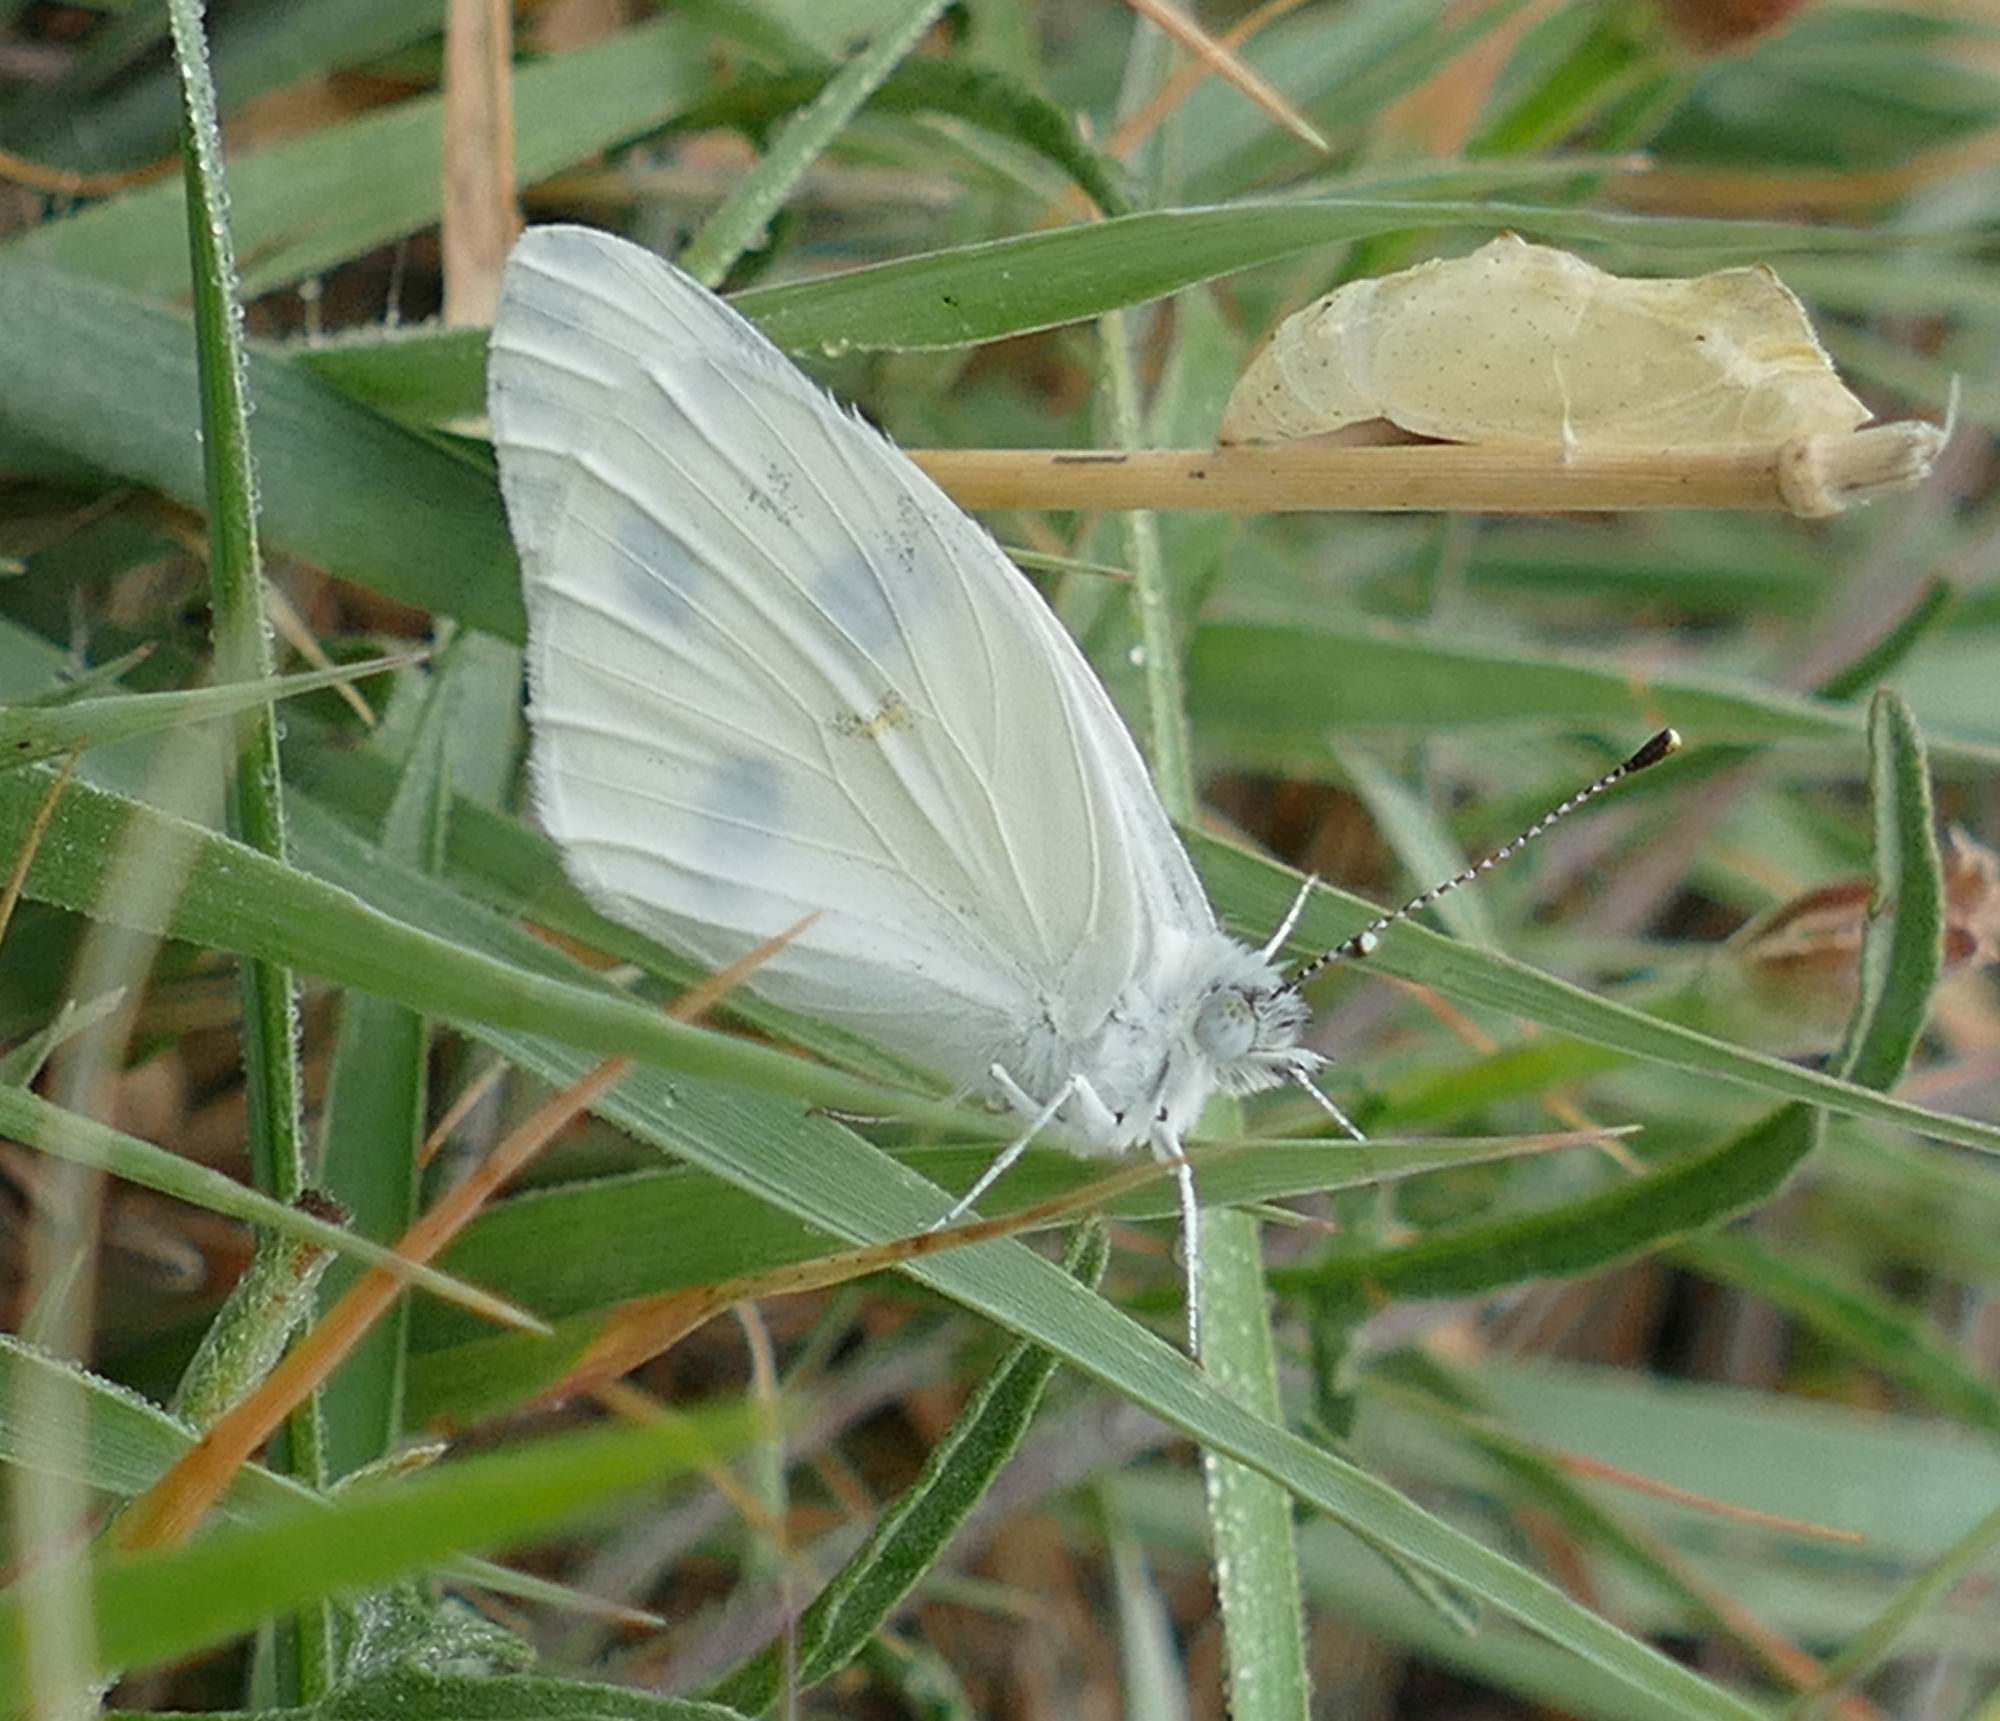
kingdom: Animalia
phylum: Arthropoda
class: Insecta
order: Lepidoptera
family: Pieridae
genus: Pontia
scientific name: Pontia protodice
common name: Checkered white
